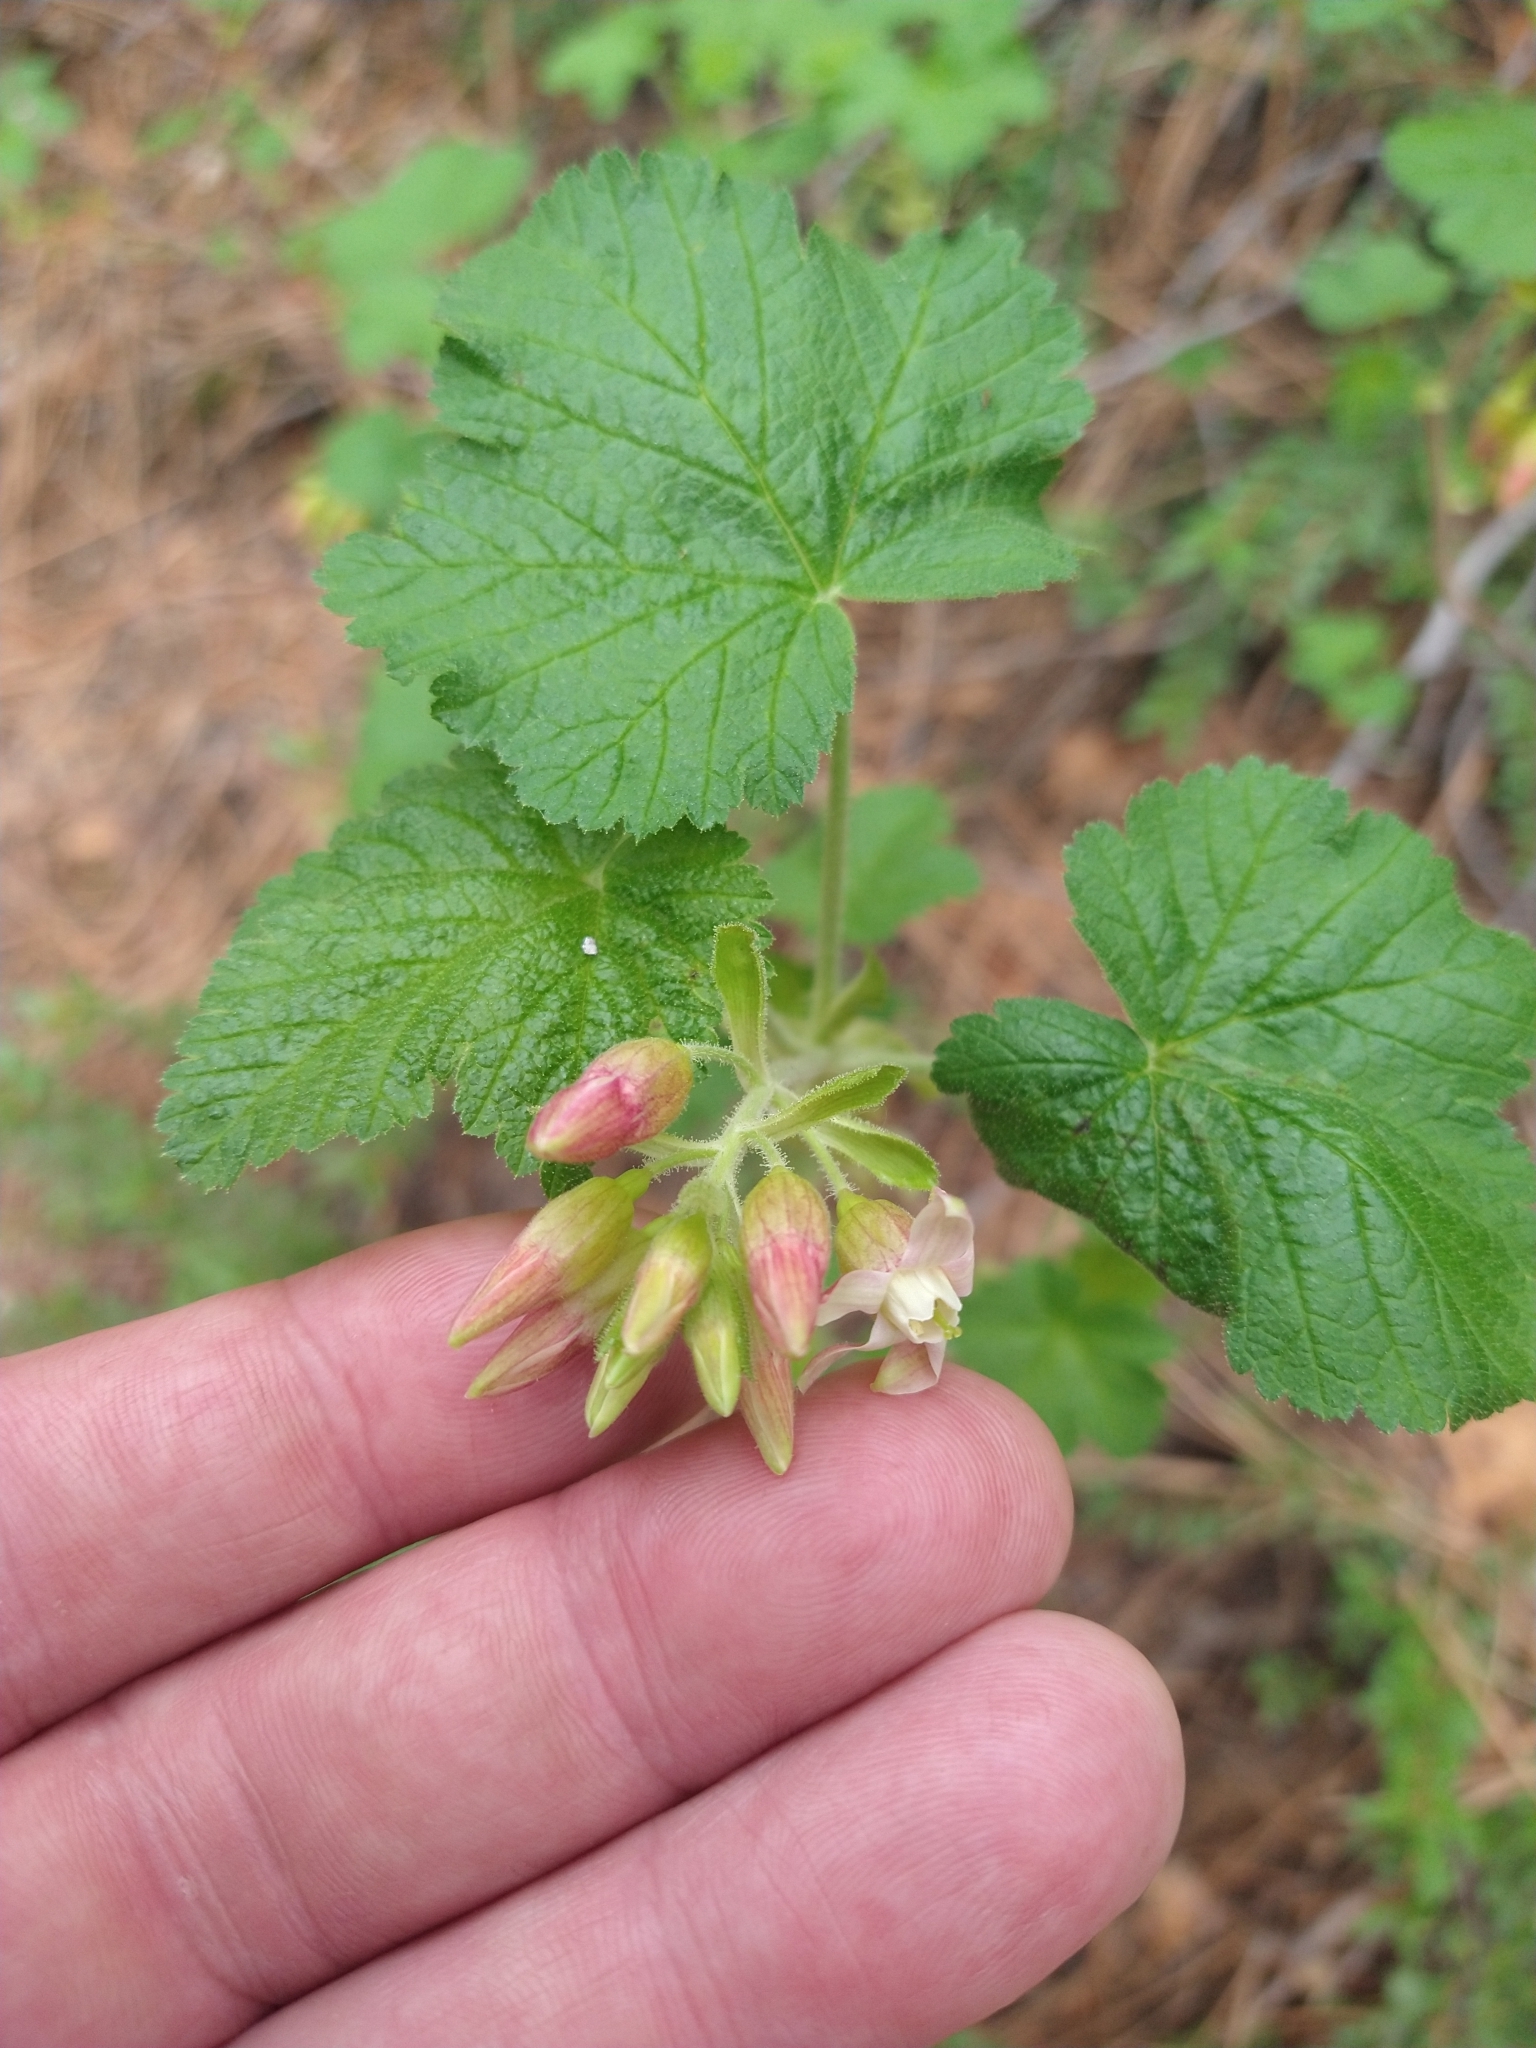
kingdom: Plantae
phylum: Tracheophyta
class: Magnoliopsida
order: Saxifragales
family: Grossulariaceae
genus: Ribes
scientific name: Ribes viscosissimum
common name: Sticky currant
